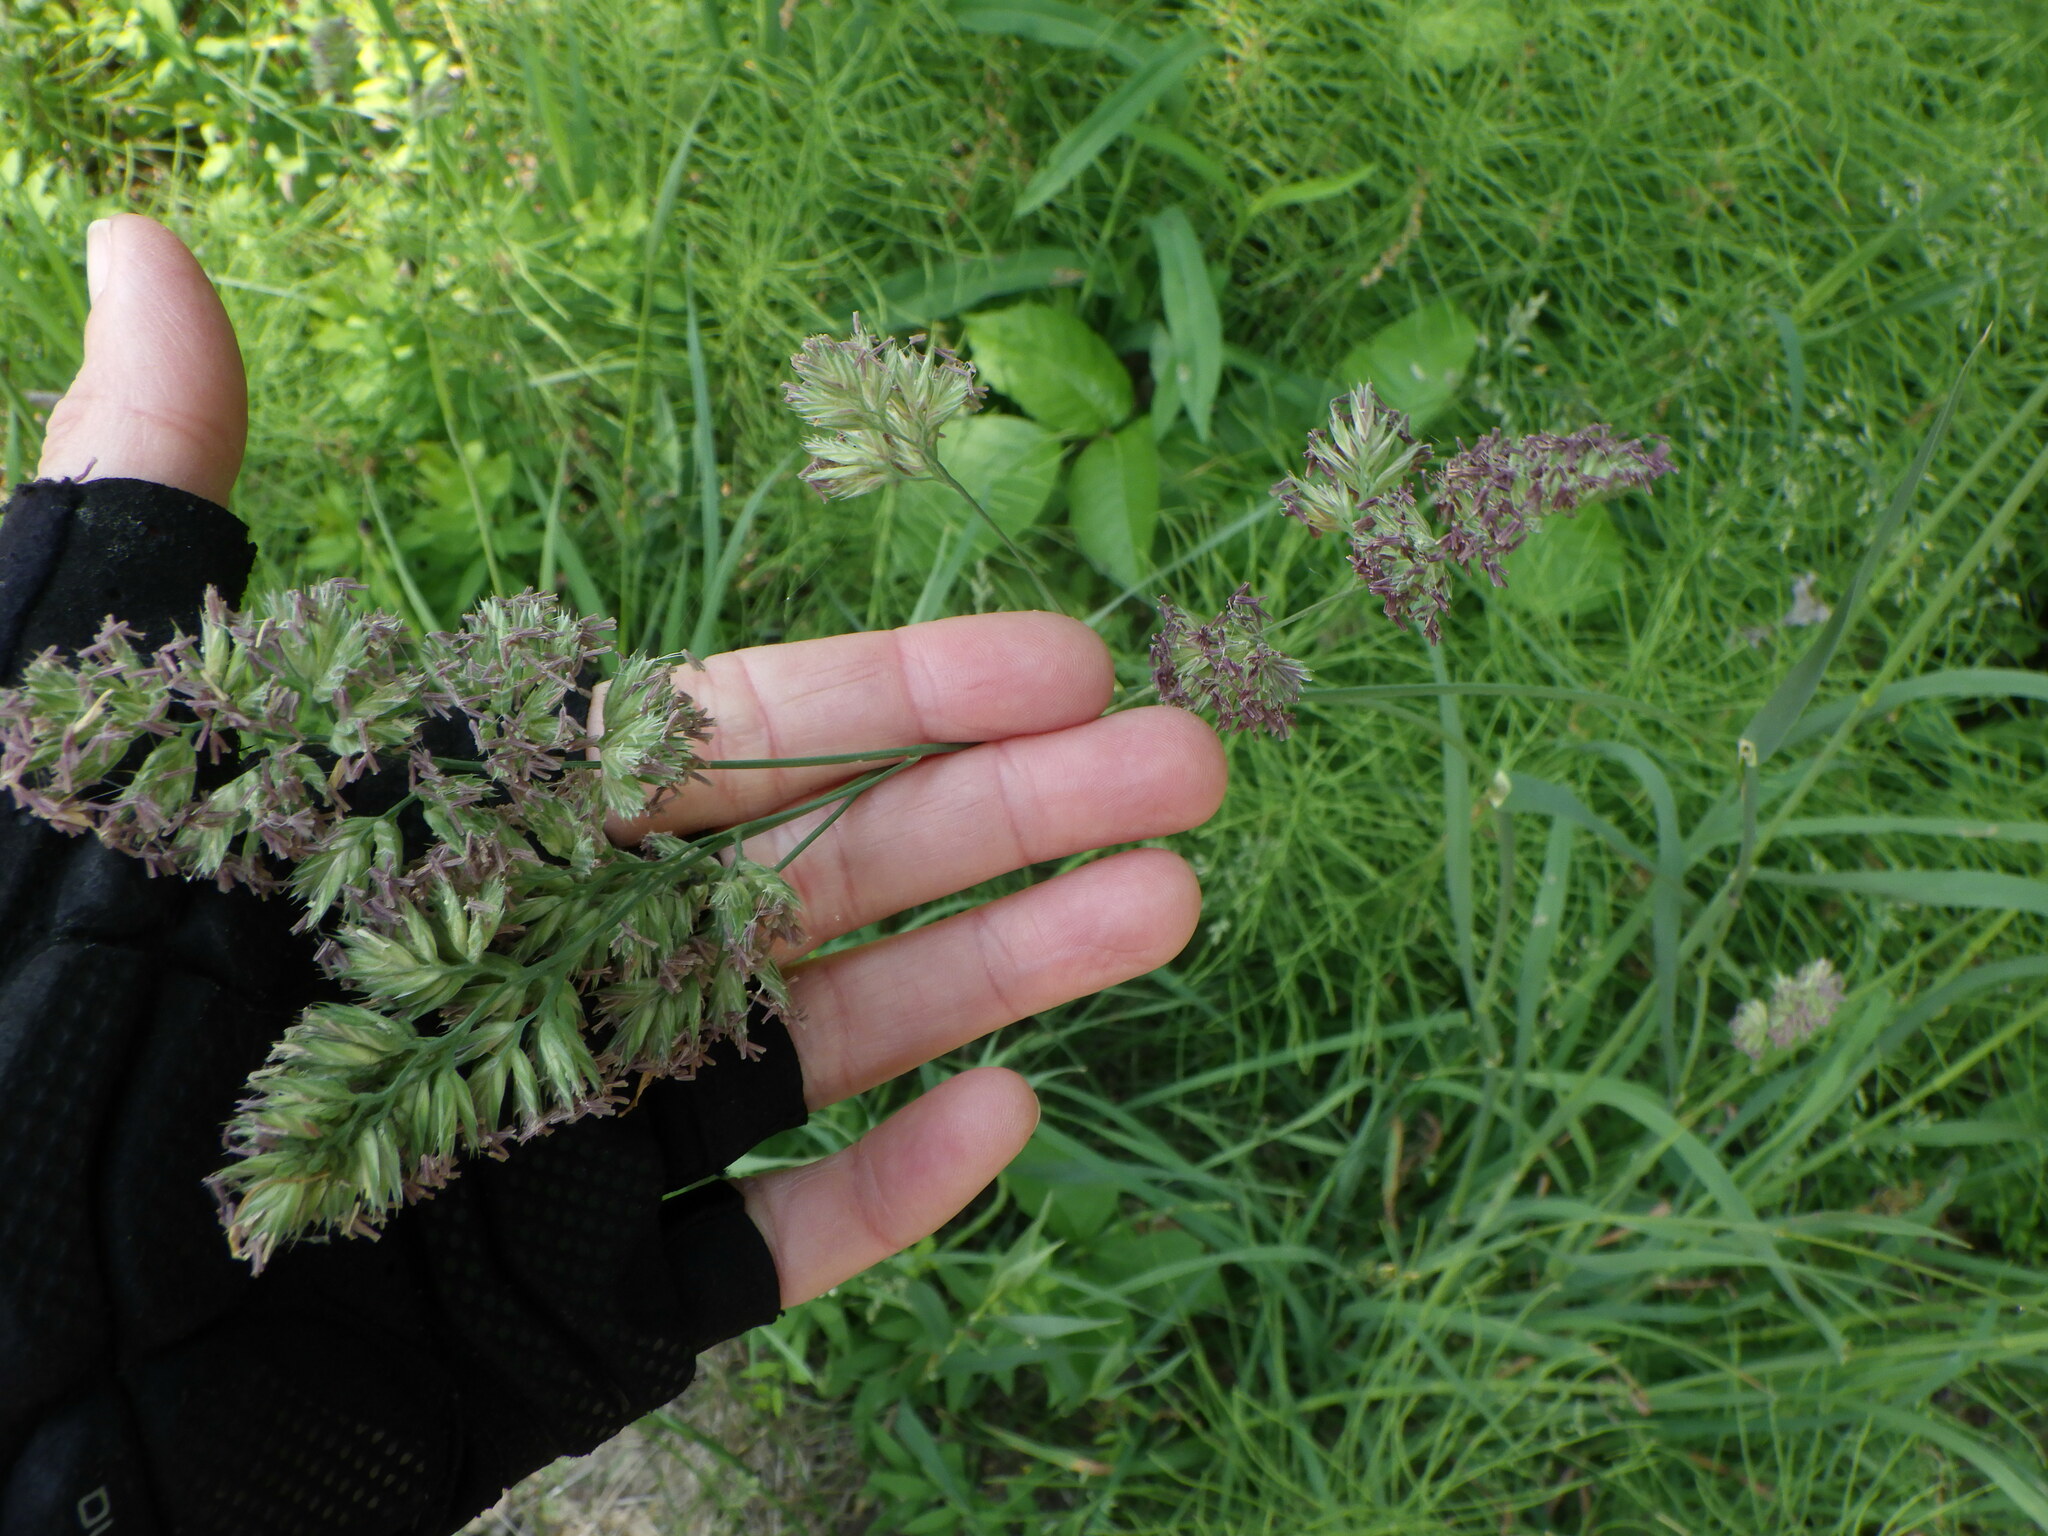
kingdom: Plantae
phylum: Tracheophyta
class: Liliopsida
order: Poales
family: Poaceae
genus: Dactylis
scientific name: Dactylis glomerata
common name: Orchardgrass
